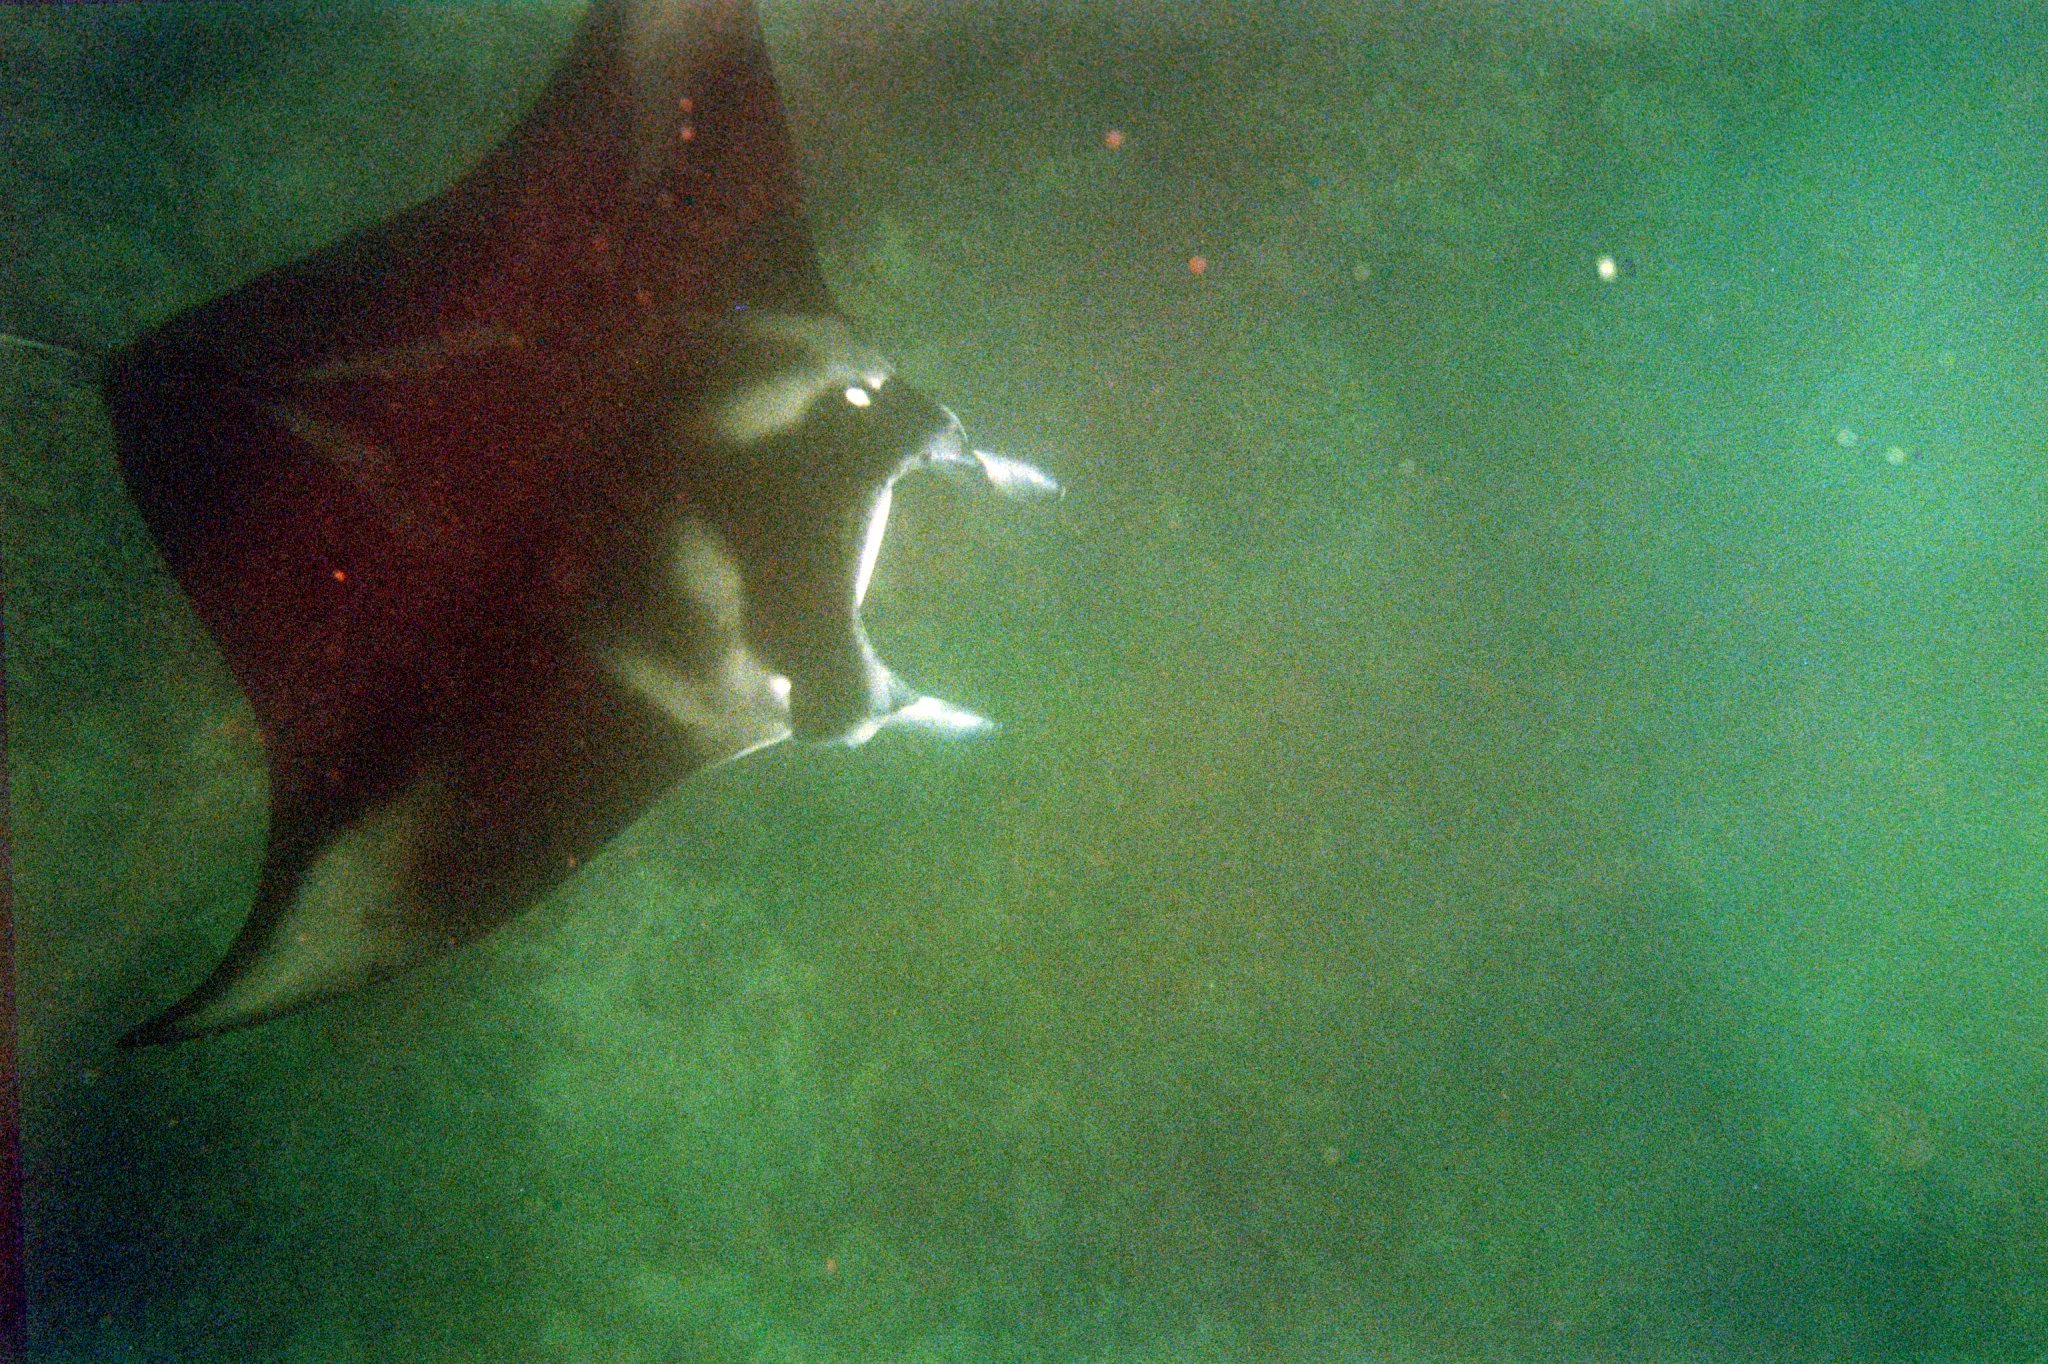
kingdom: Animalia
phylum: Chordata
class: Elasmobranchii
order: Myliobatiformes
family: Myliobatidae
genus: Mobula
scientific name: Mobula alfredi
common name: Reef manta ray
